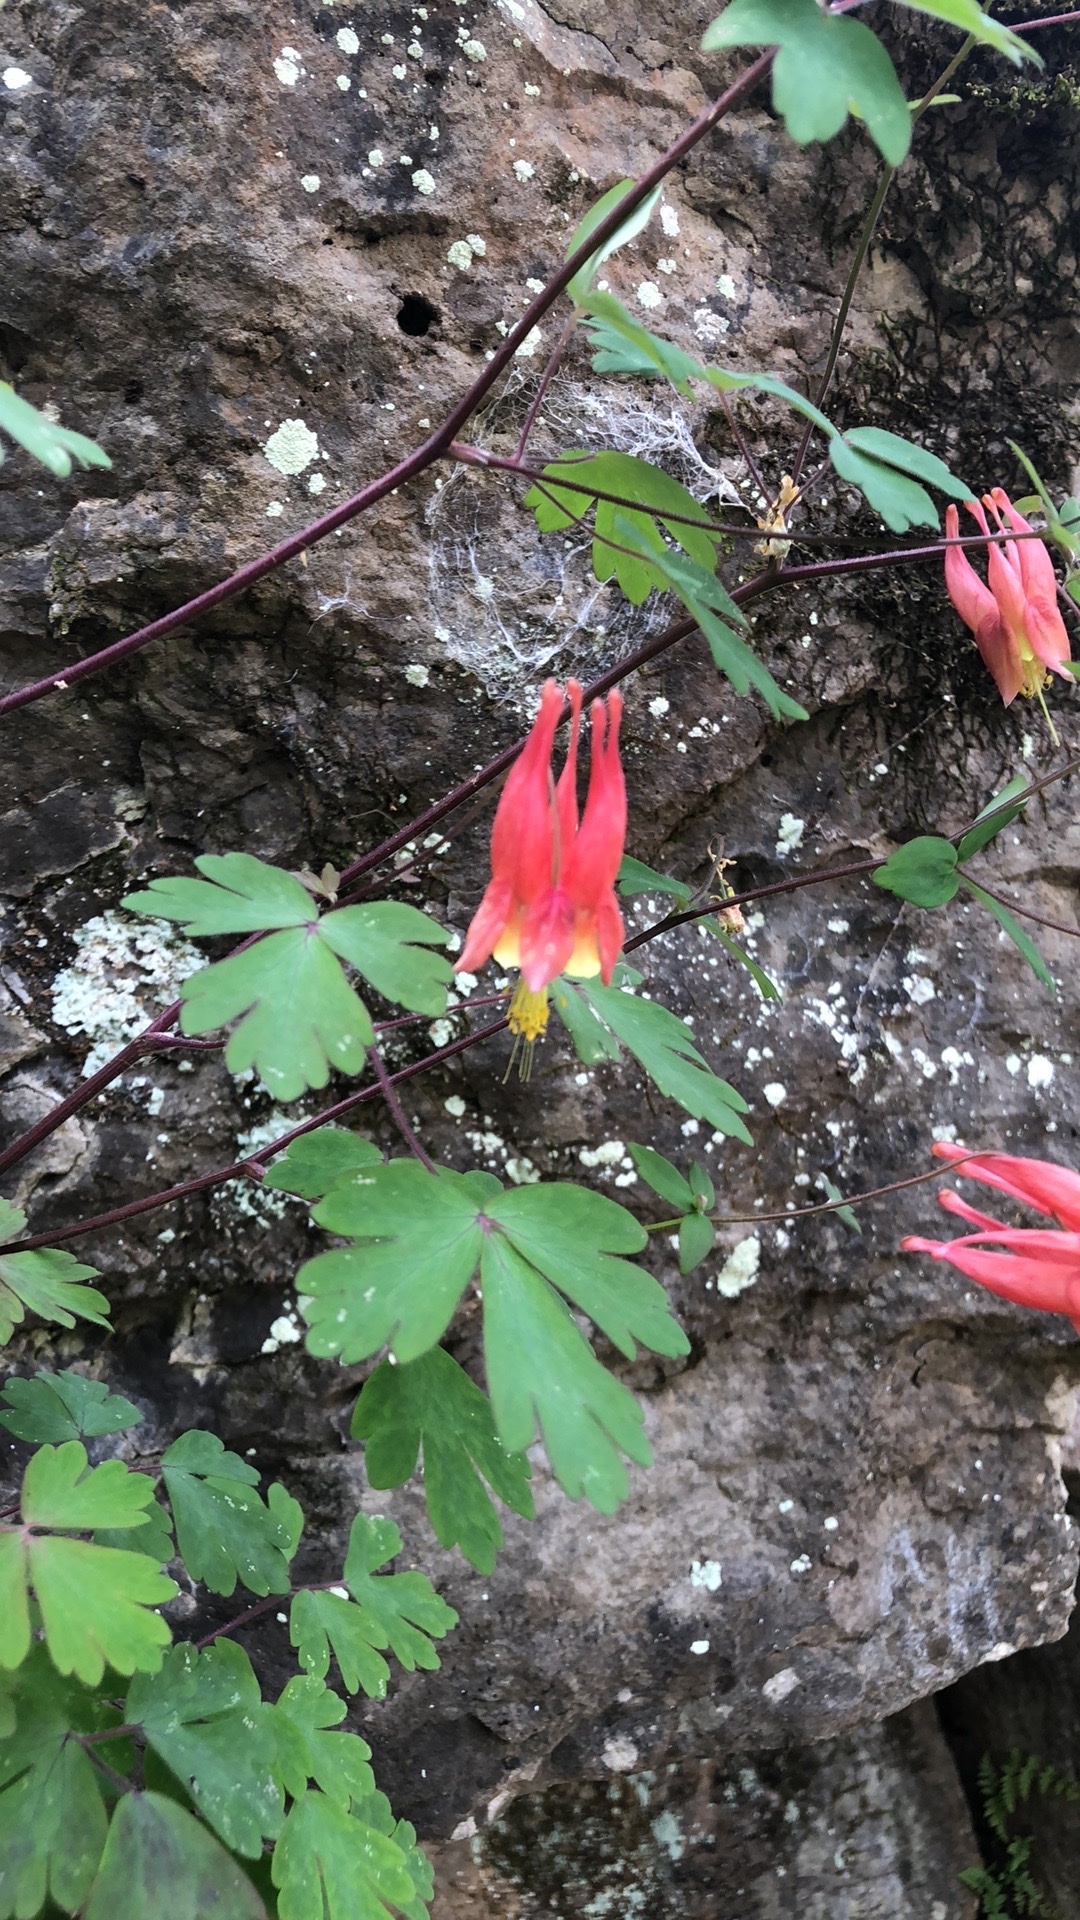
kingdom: Plantae
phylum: Tracheophyta
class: Magnoliopsida
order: Ranunculales
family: Ranunculaceae
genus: Aquilegia
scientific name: Aquilegia canadensis
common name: American columbine
